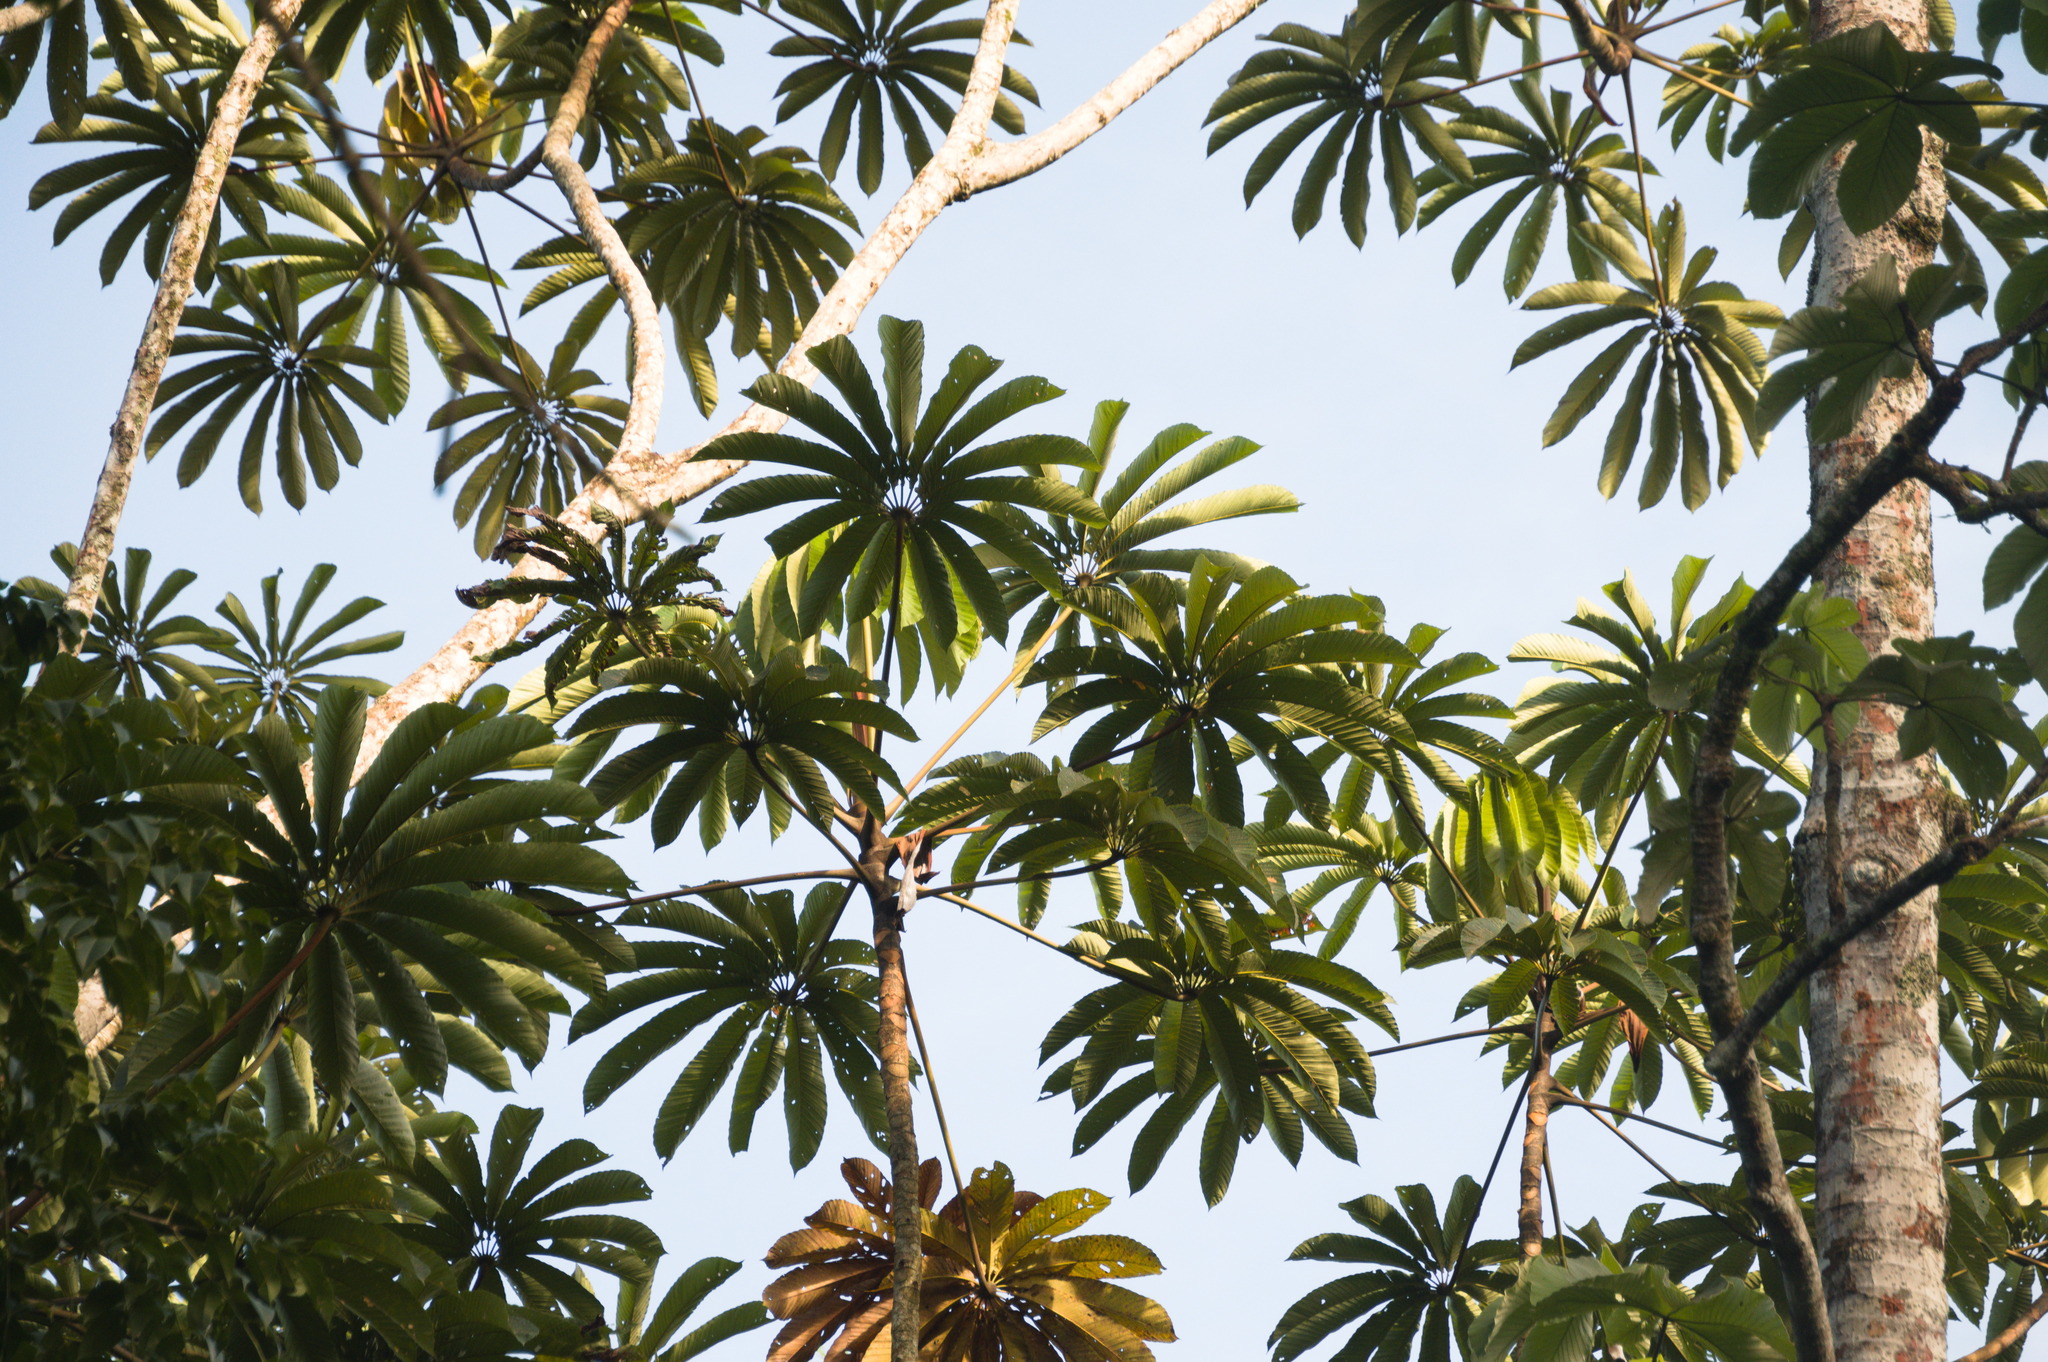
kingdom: Plantae
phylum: Tracheophyta
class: Magnoliopsida
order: Rosales
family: Urticaceae
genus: Cecropia
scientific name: Cecropia sciadophylla
